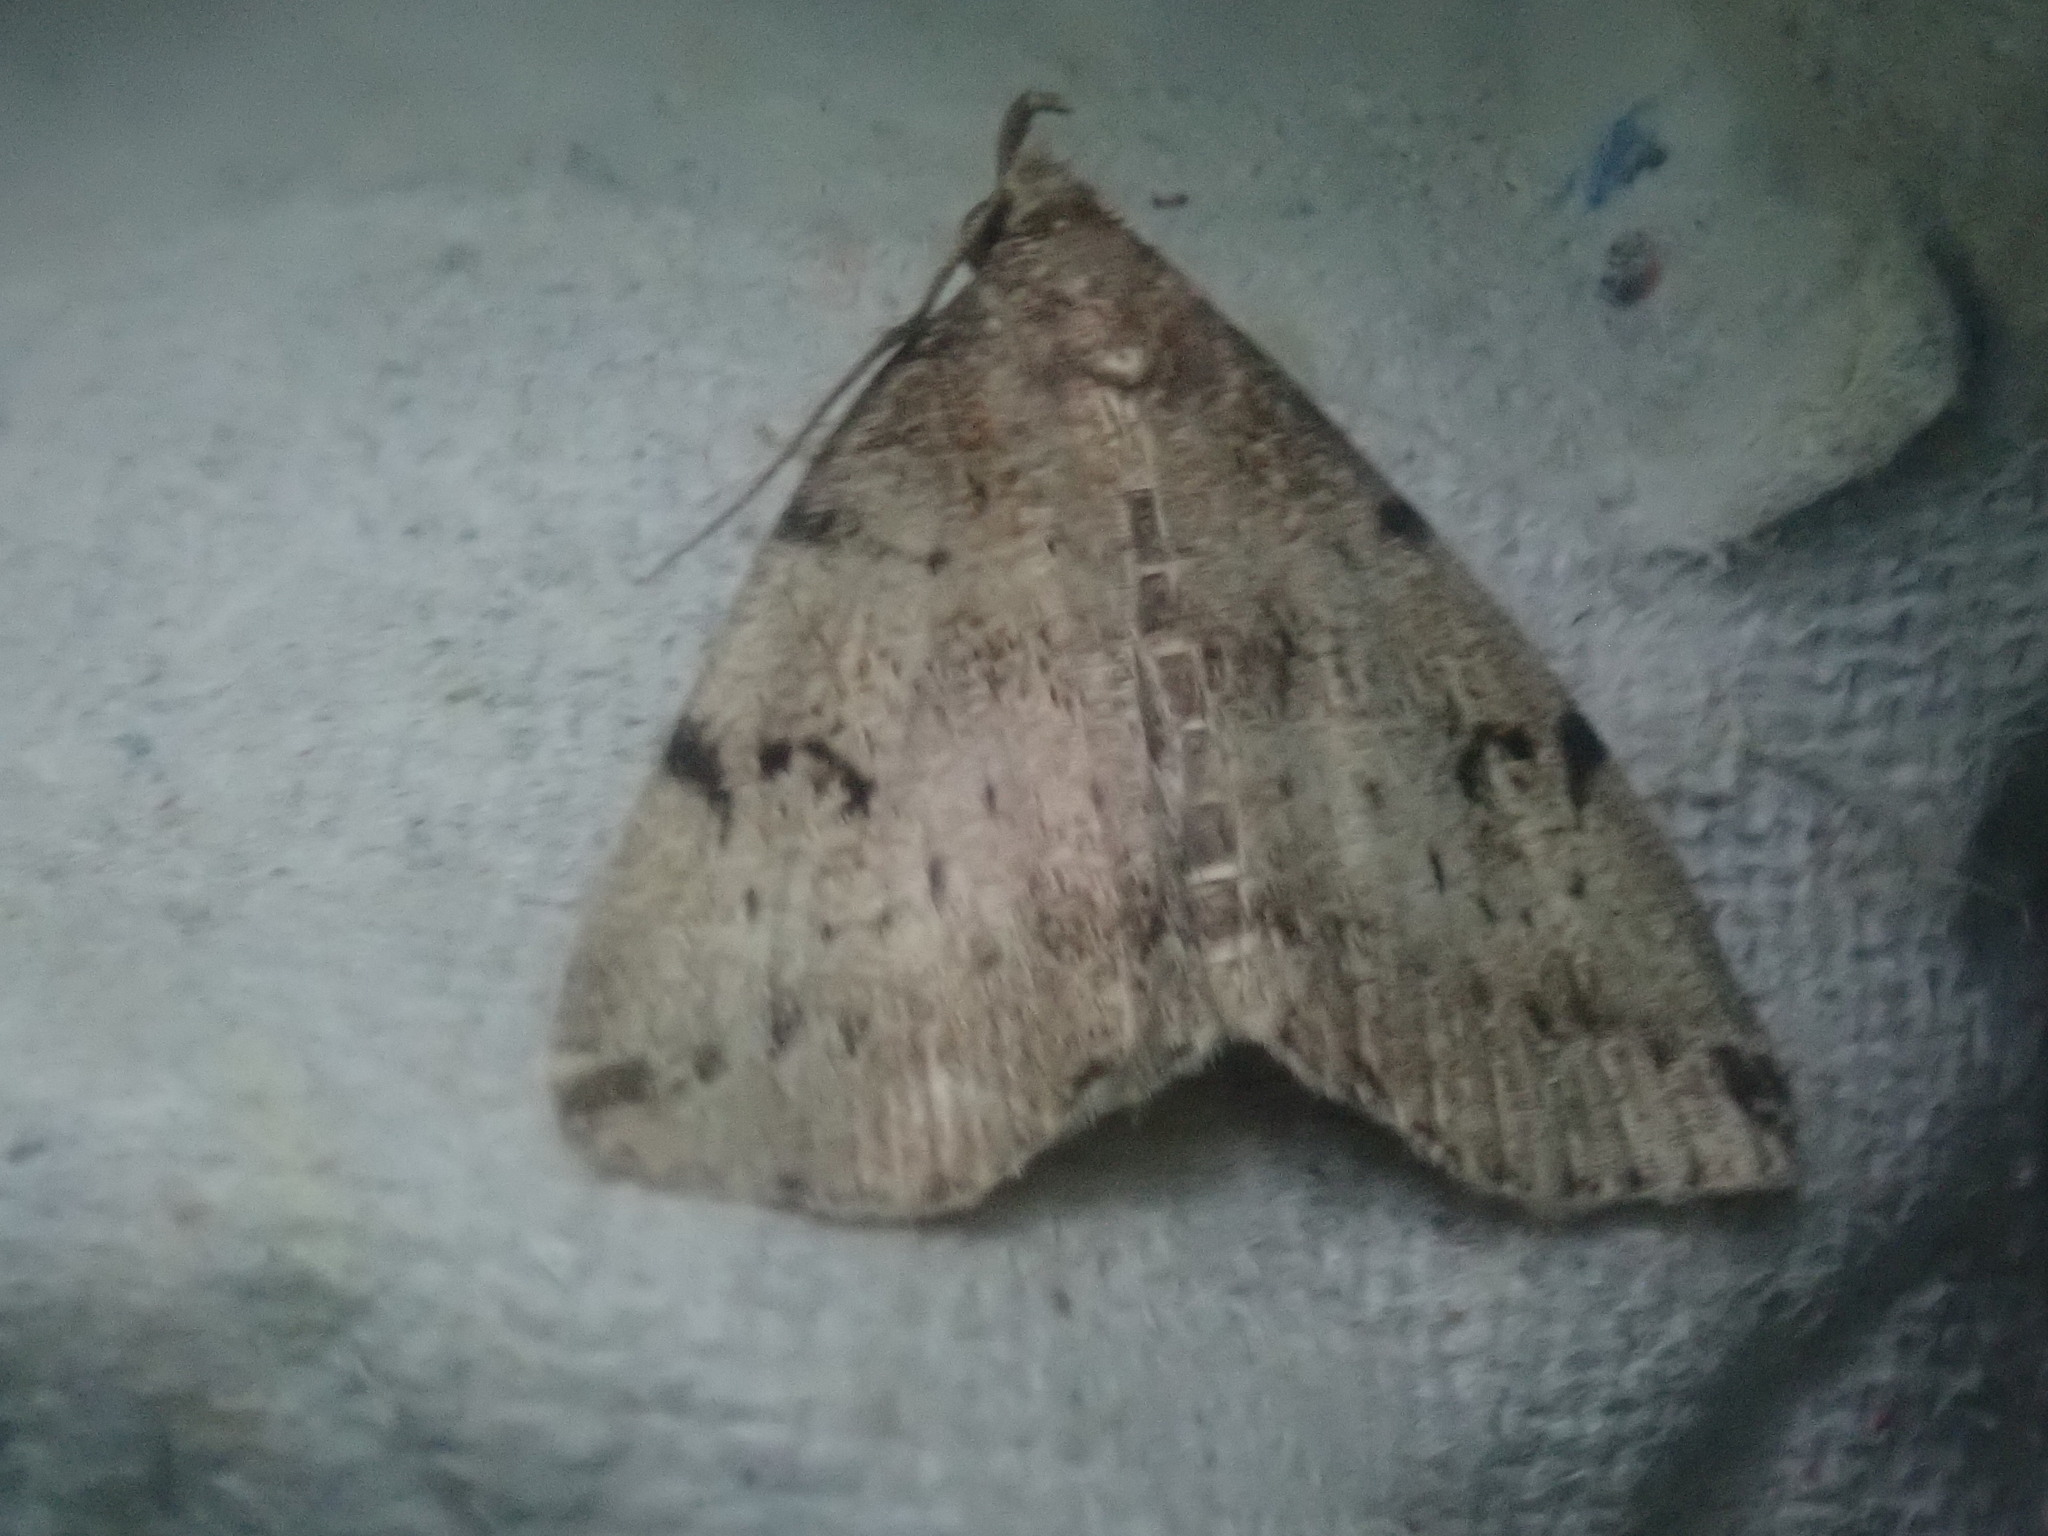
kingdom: Animalia
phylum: Arthropoda
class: Insecta
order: Lepidoptera
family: Erebidae
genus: Zanclognatha
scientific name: Zanclognatha lituralis
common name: Lettered fan-foot
